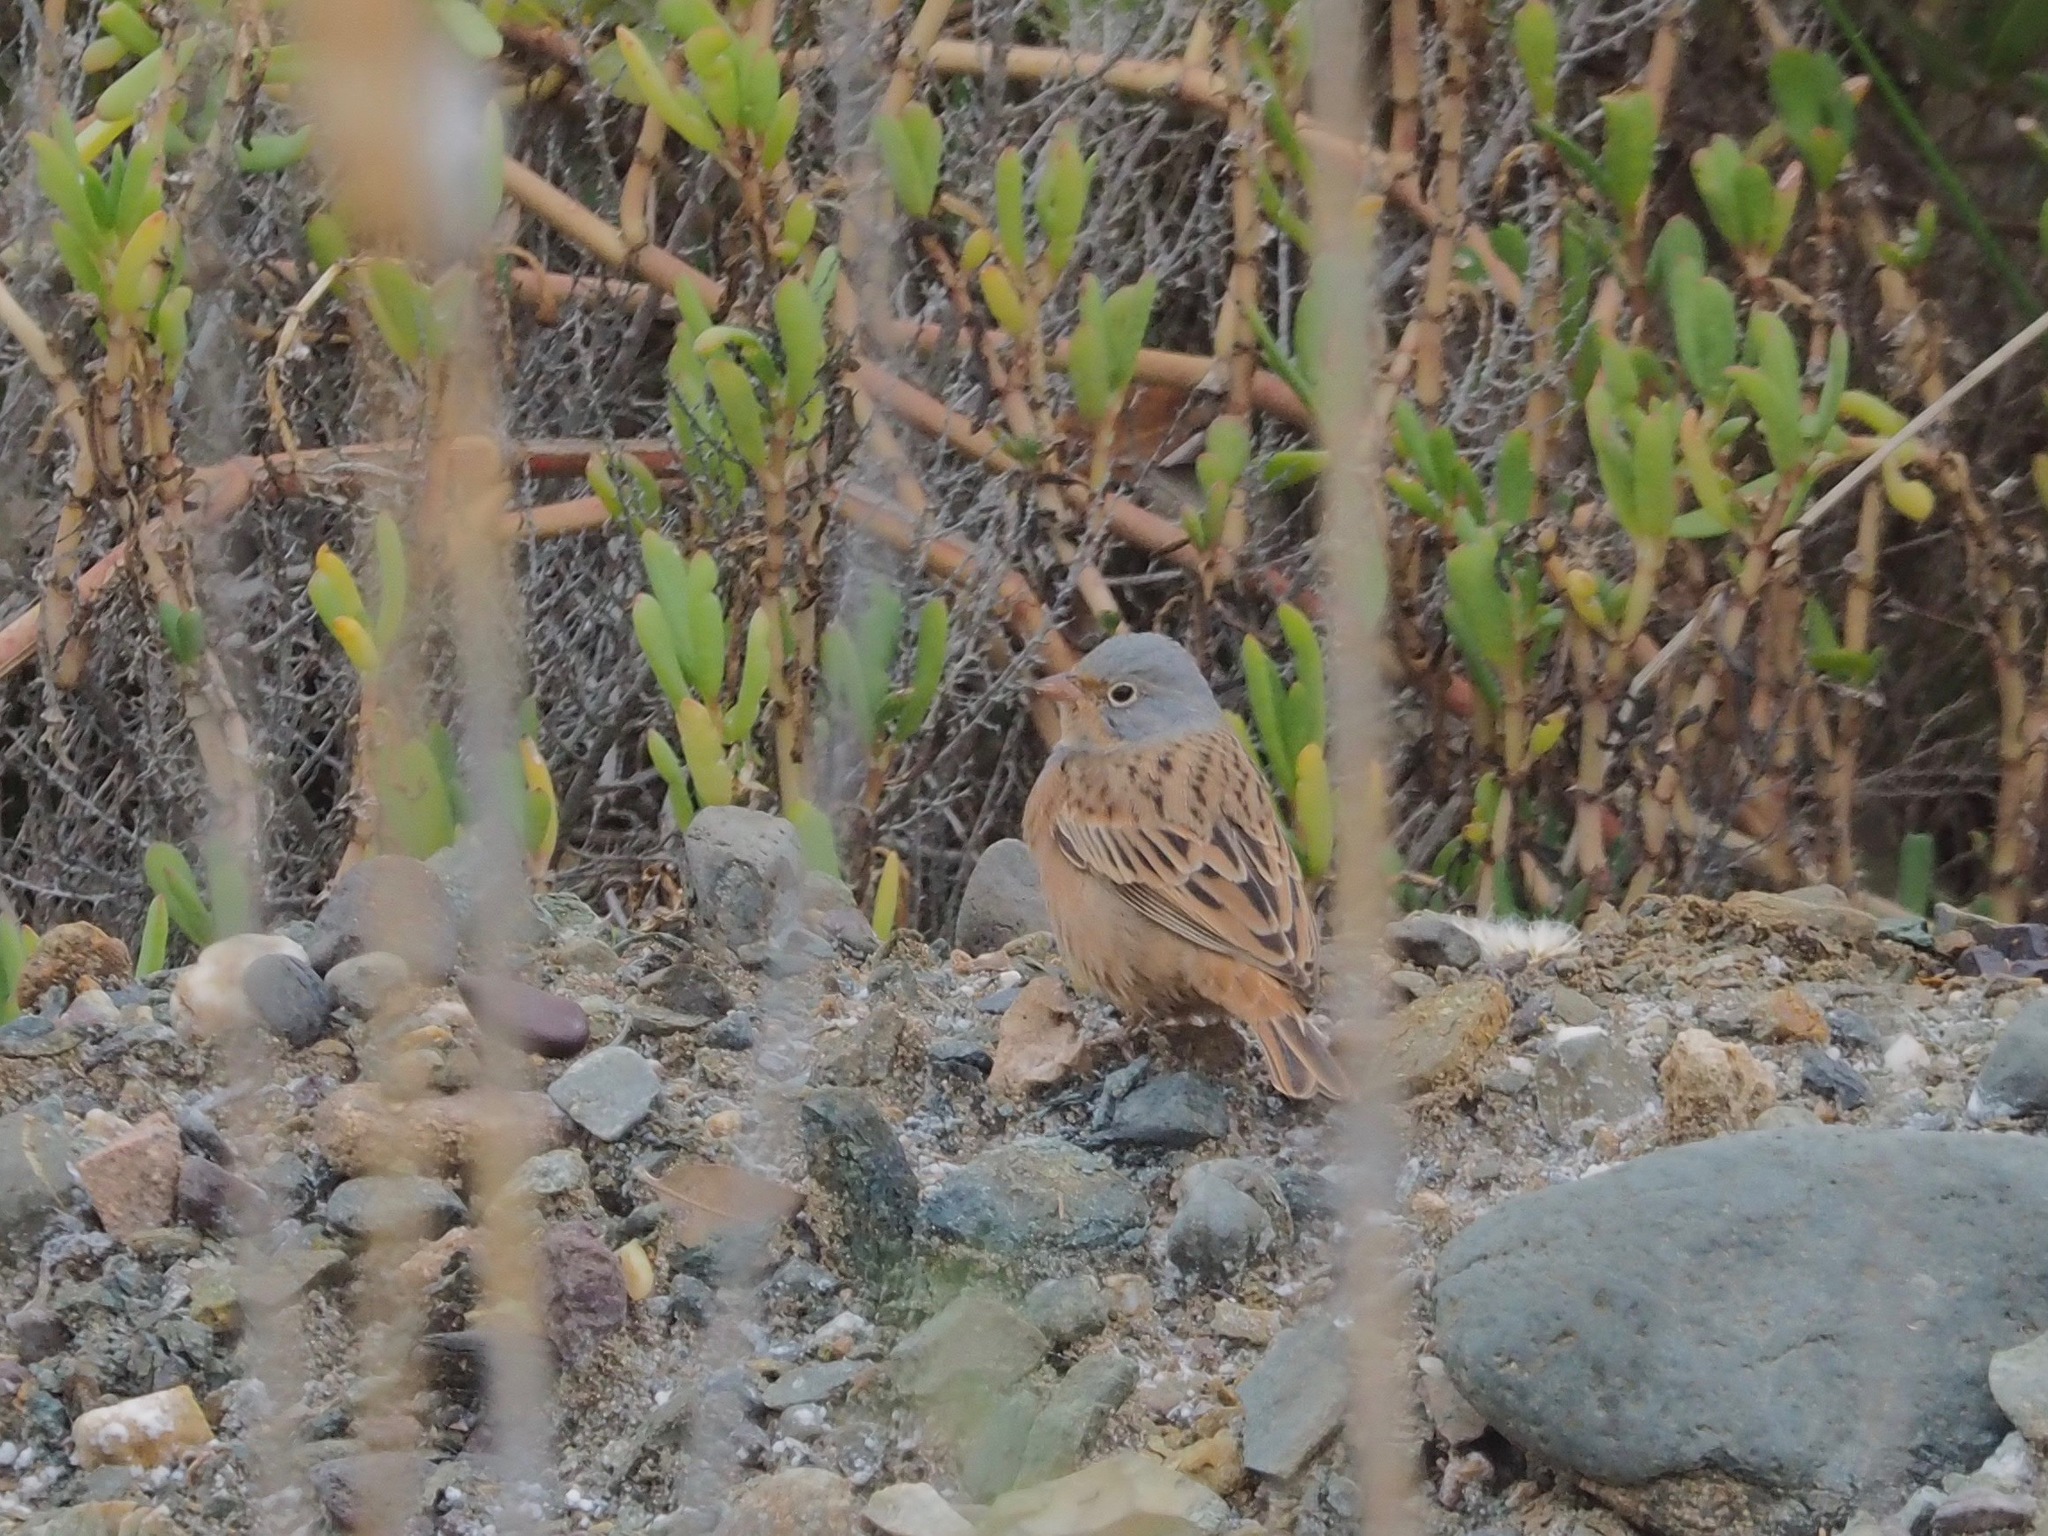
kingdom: Animalia
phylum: Chordata
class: Aves
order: Passeriformes
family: Emberizidae
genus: Emberiza
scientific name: Emberiza caesia
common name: Cretzschmar's bunting
